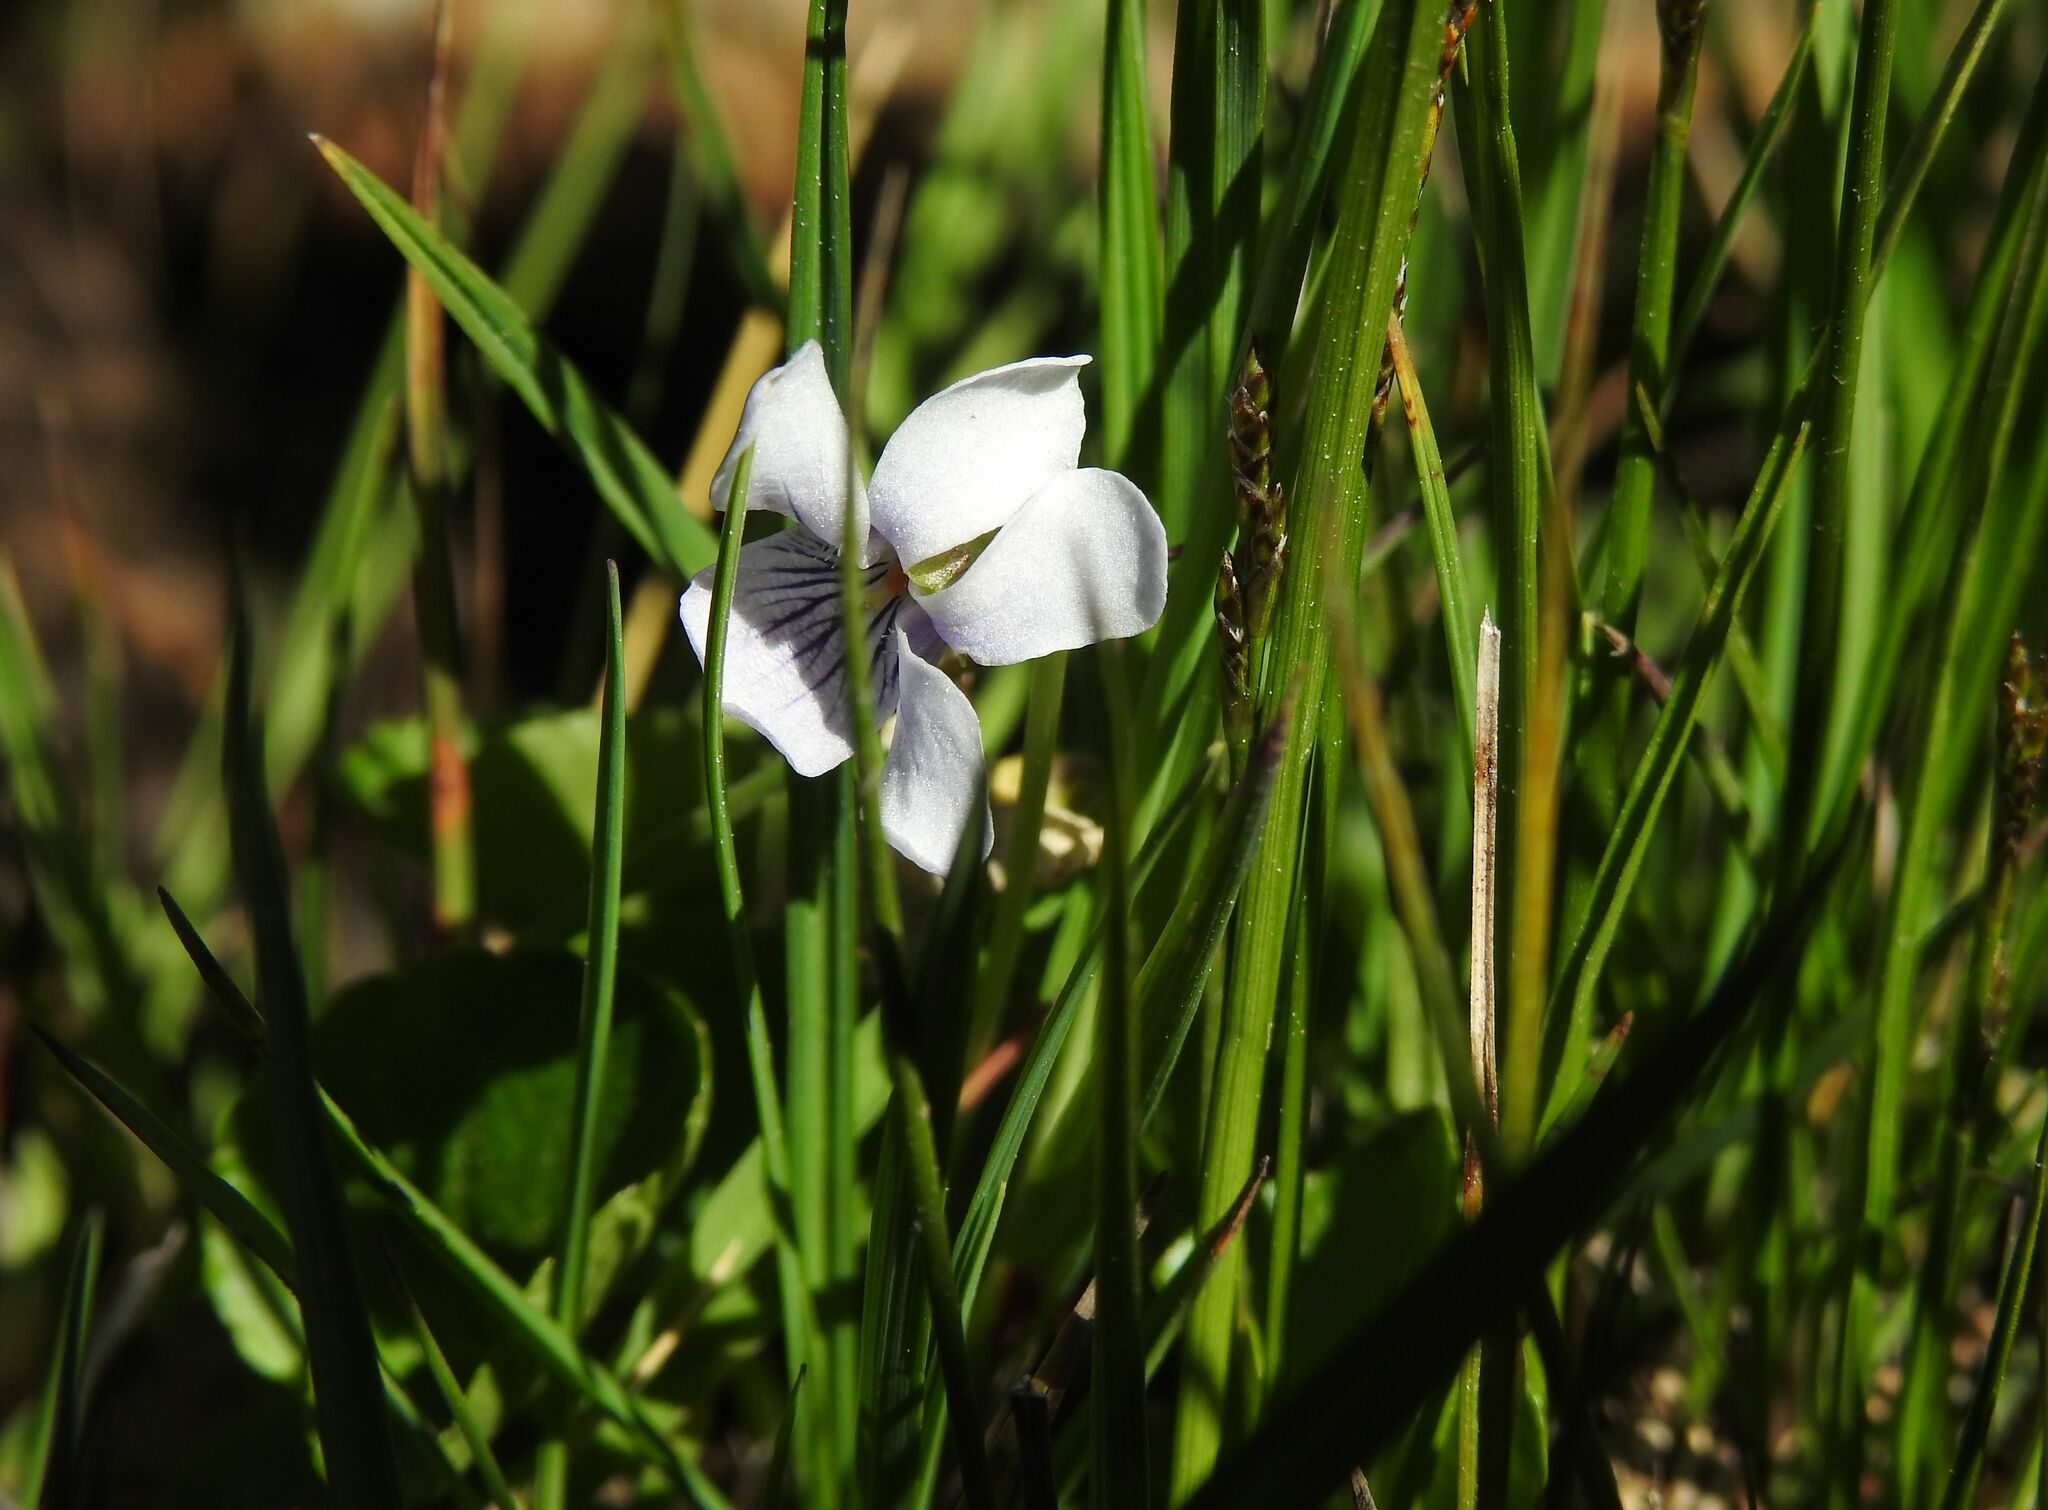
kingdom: Plantae
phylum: Tracheophyta
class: Magnoliopsida
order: Malpighiales
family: Violaceae
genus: Viola
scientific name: Viola palustris
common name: Marsh violet
